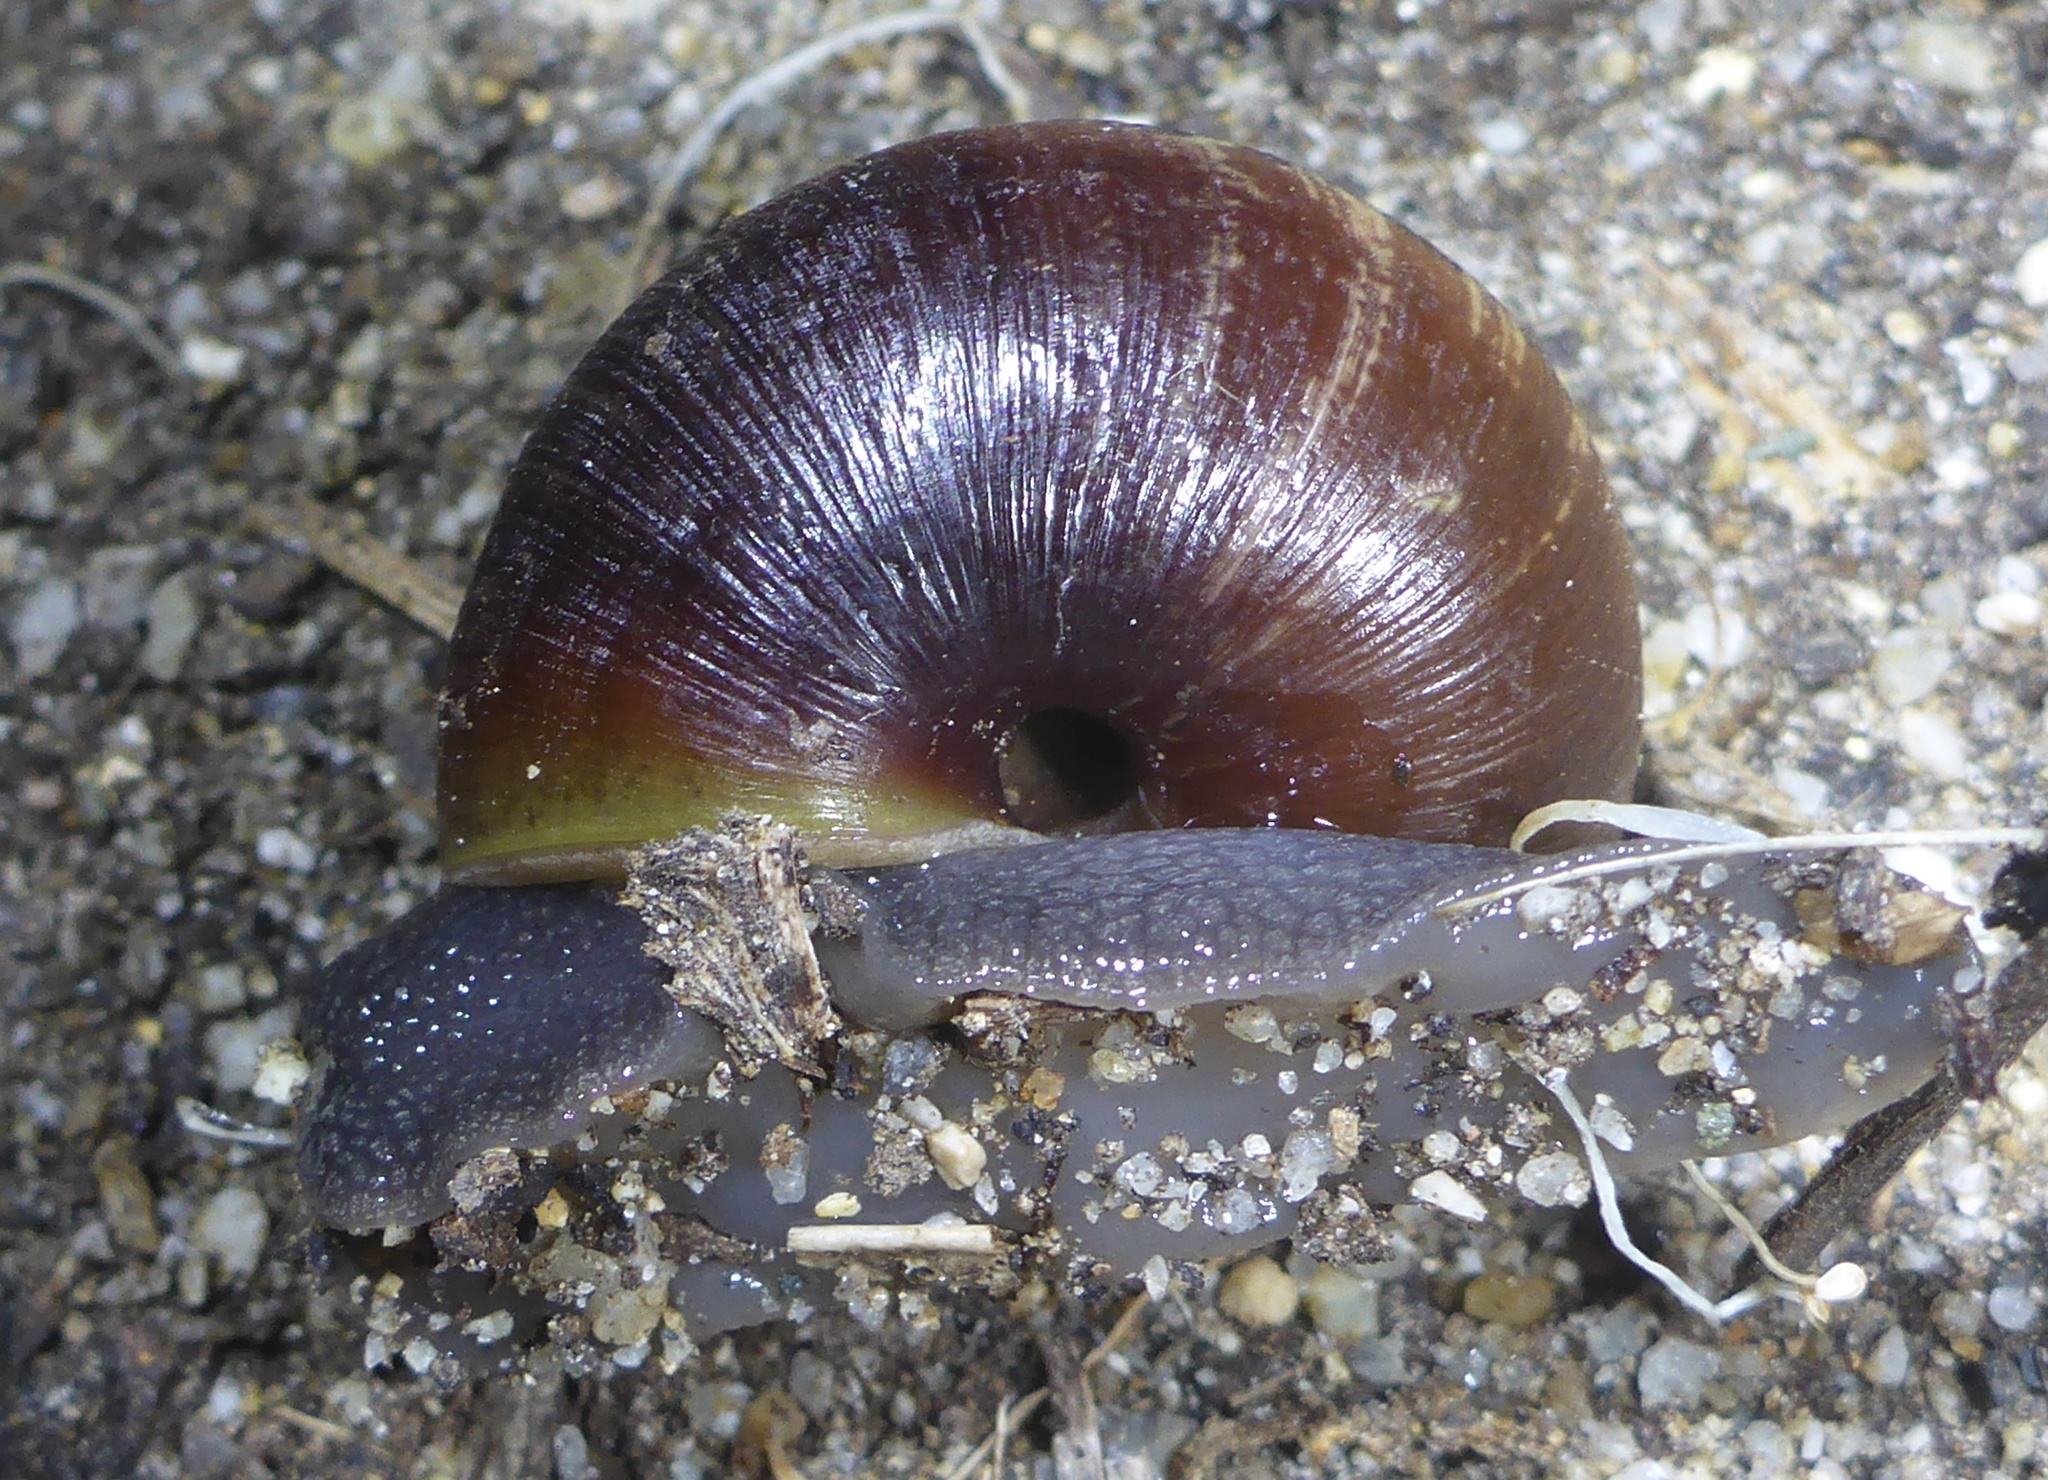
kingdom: Animalia
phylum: Mollusca
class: Gastropoda
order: Stylommatophora
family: Xanthonychidae
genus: Helminthoglypta
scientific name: Helminthoglypta arrosa
